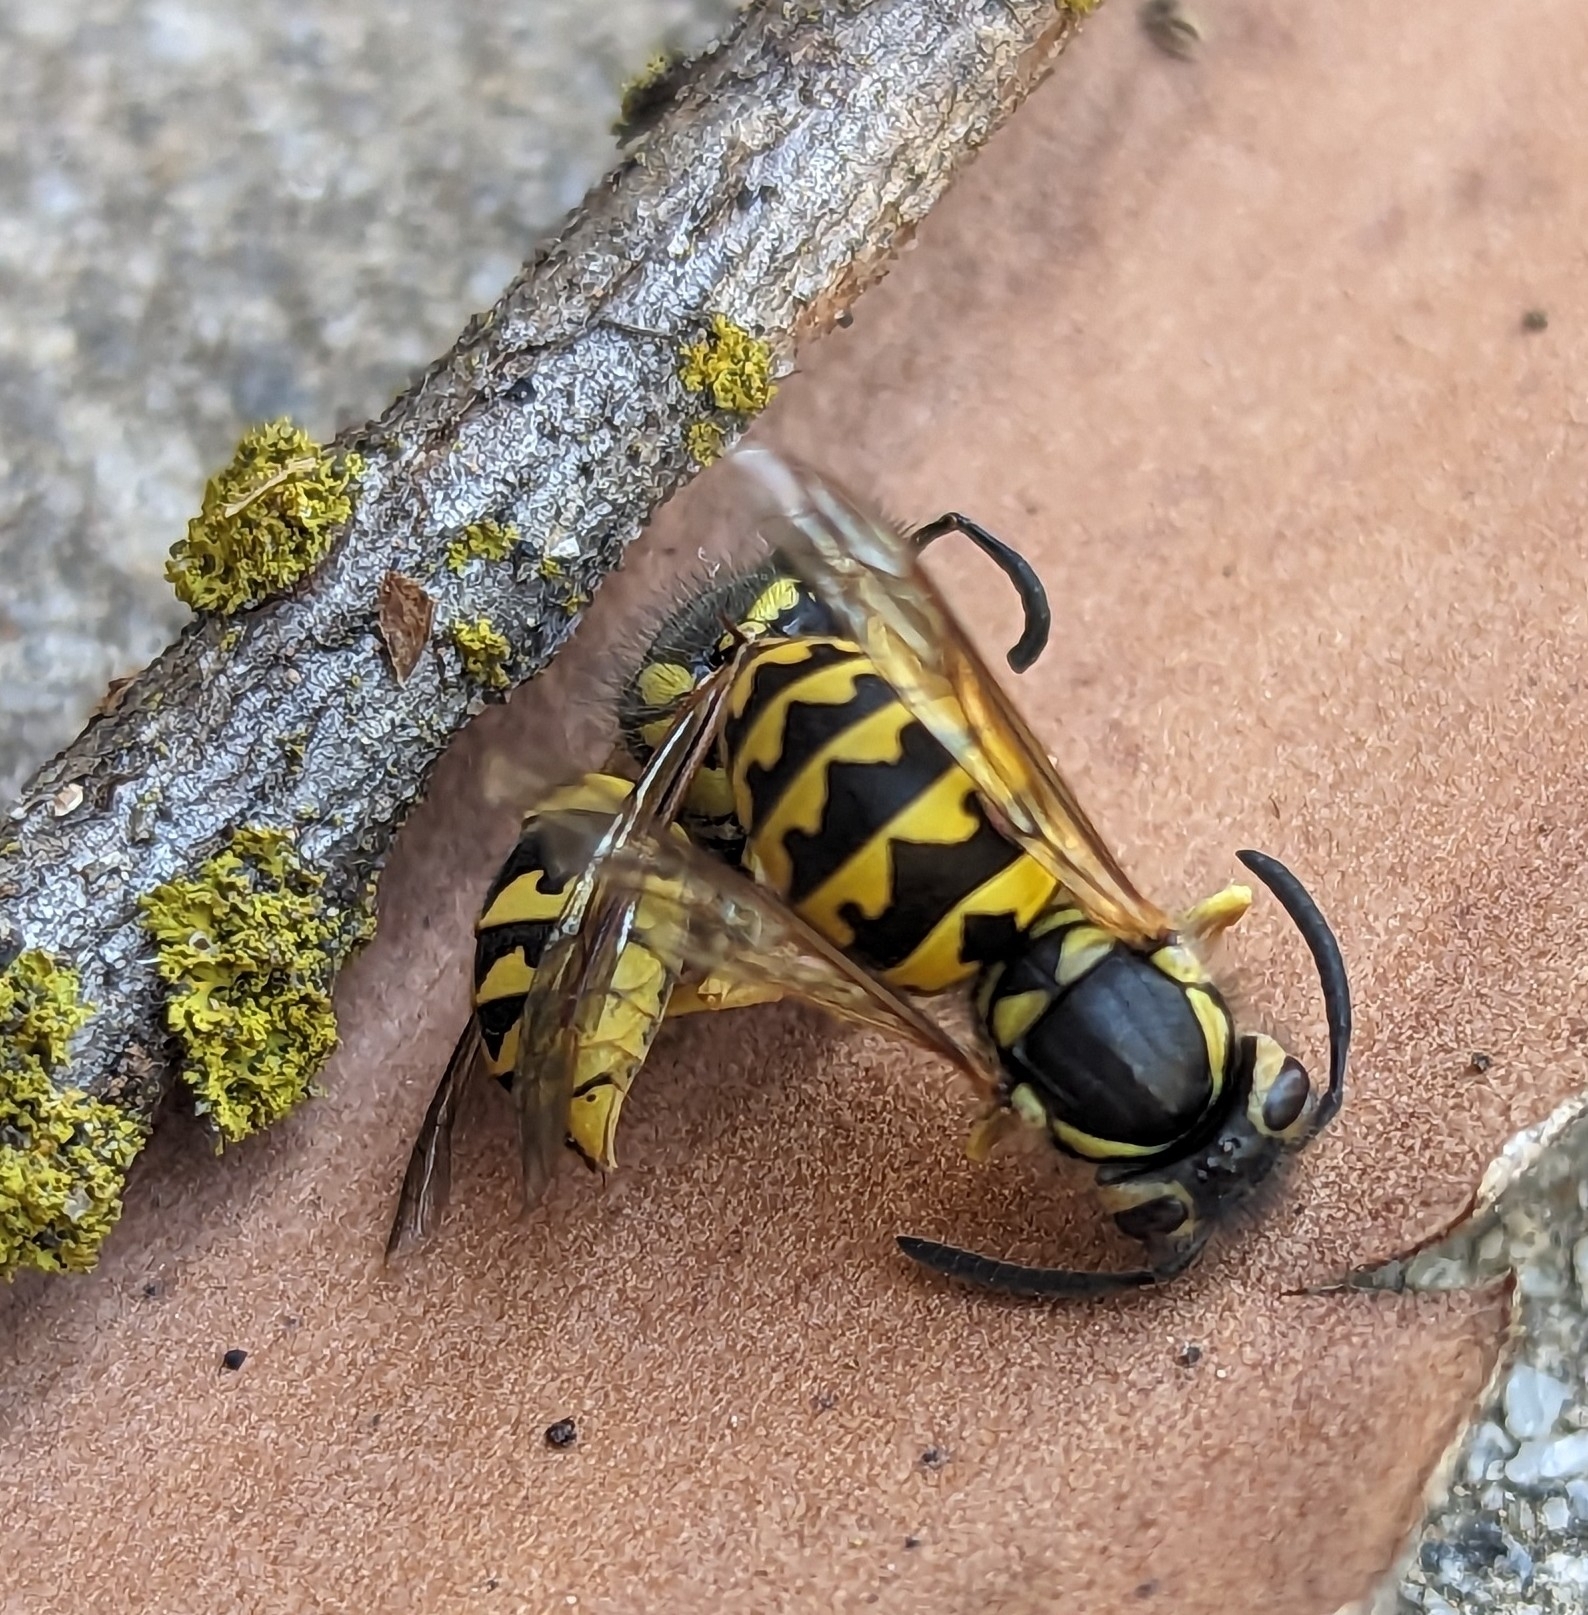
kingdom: Animalia
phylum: Arthropoda
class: Insecta
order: Hymenoptera
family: Vespidae
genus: Vespula
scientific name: Vespula pensylvanica
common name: Western yellowjacket
